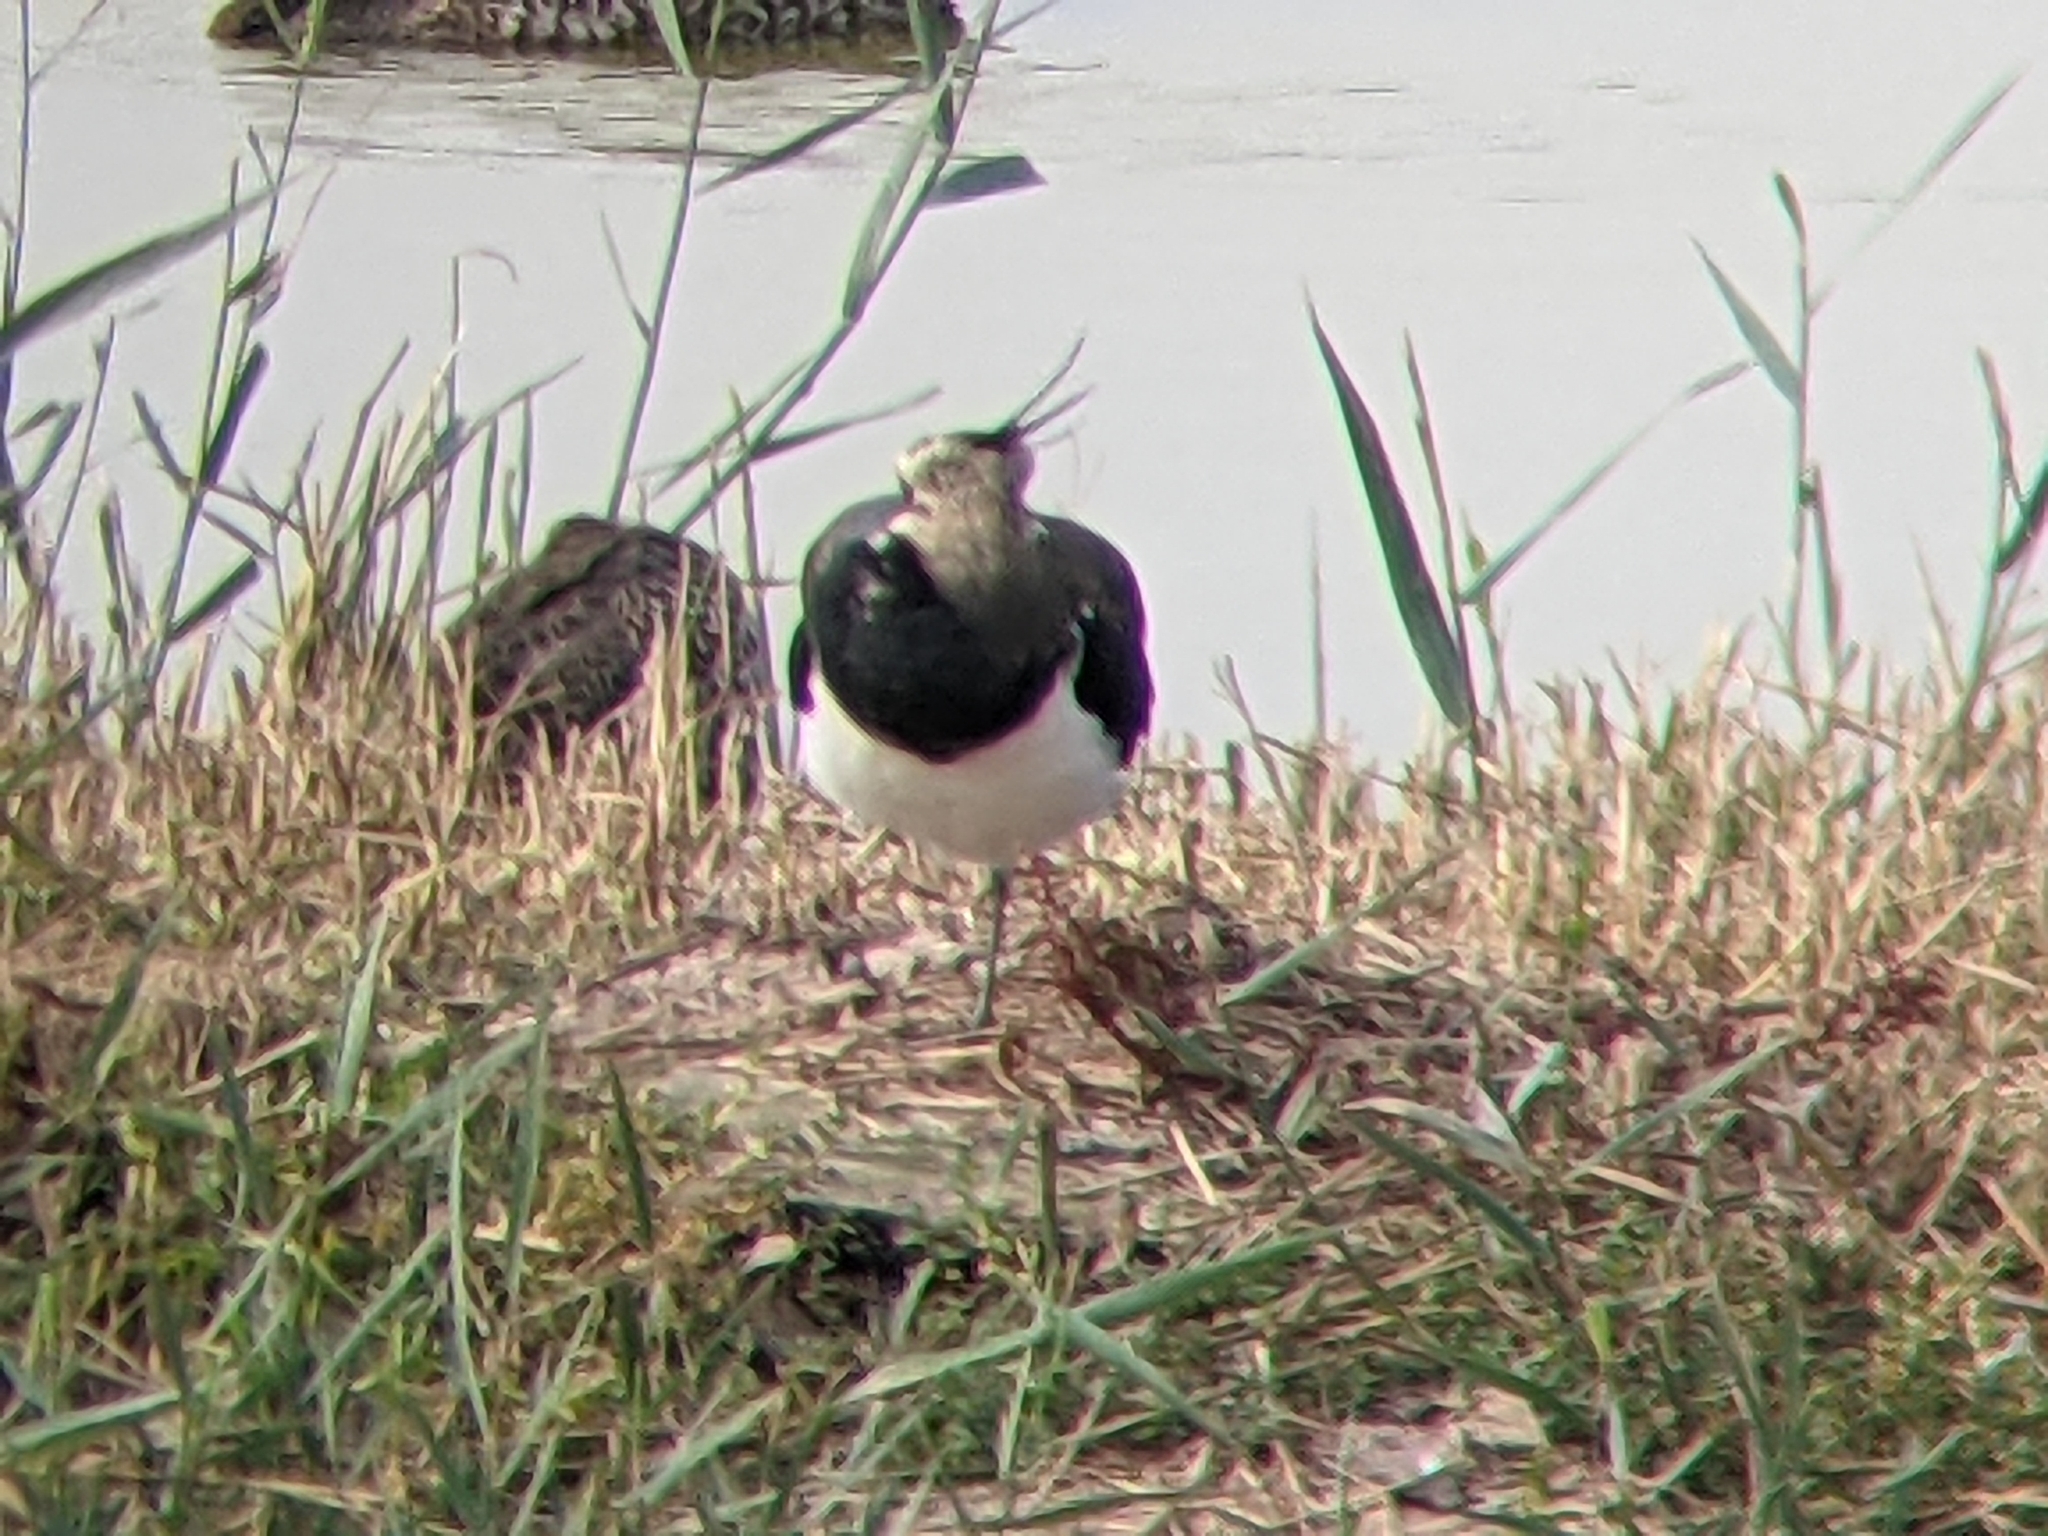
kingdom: Animalia
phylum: Chordata
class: Aves
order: Charadriiformes
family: Charadriidae
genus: Vanellus
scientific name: Vanellus vanellus
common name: Northern lapwing
